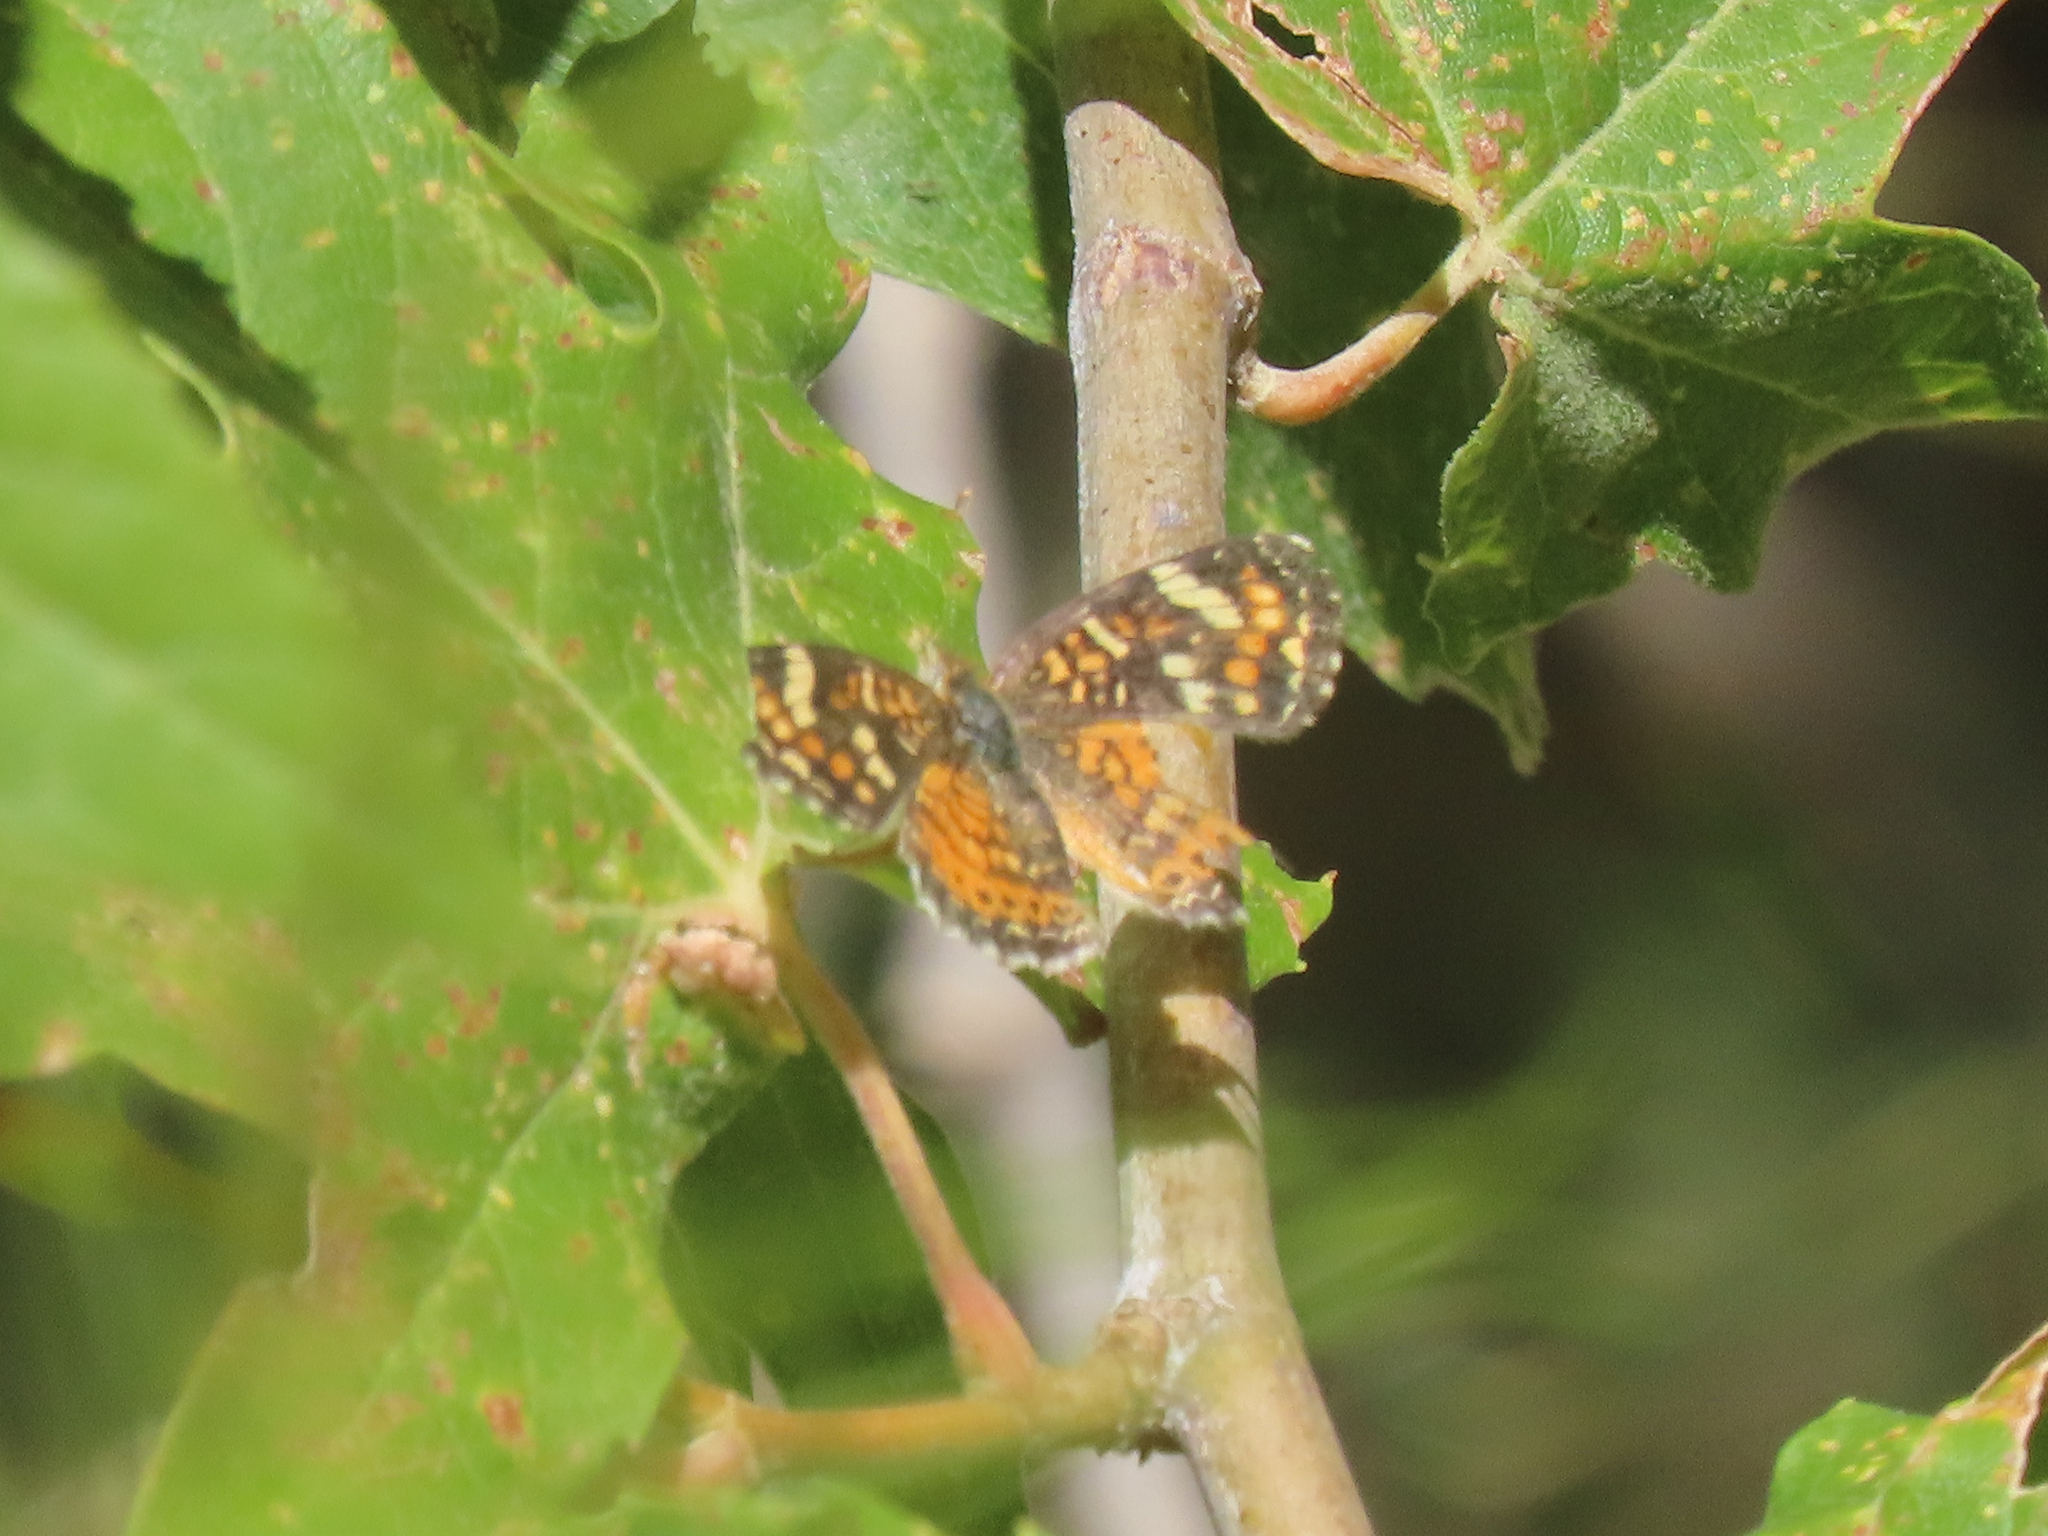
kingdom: Animalia
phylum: Arthropoda
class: Insecta
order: Lepidoptera
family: Nymphalidae
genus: Phyciodes
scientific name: Phyciodes picta
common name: Painted crescent
